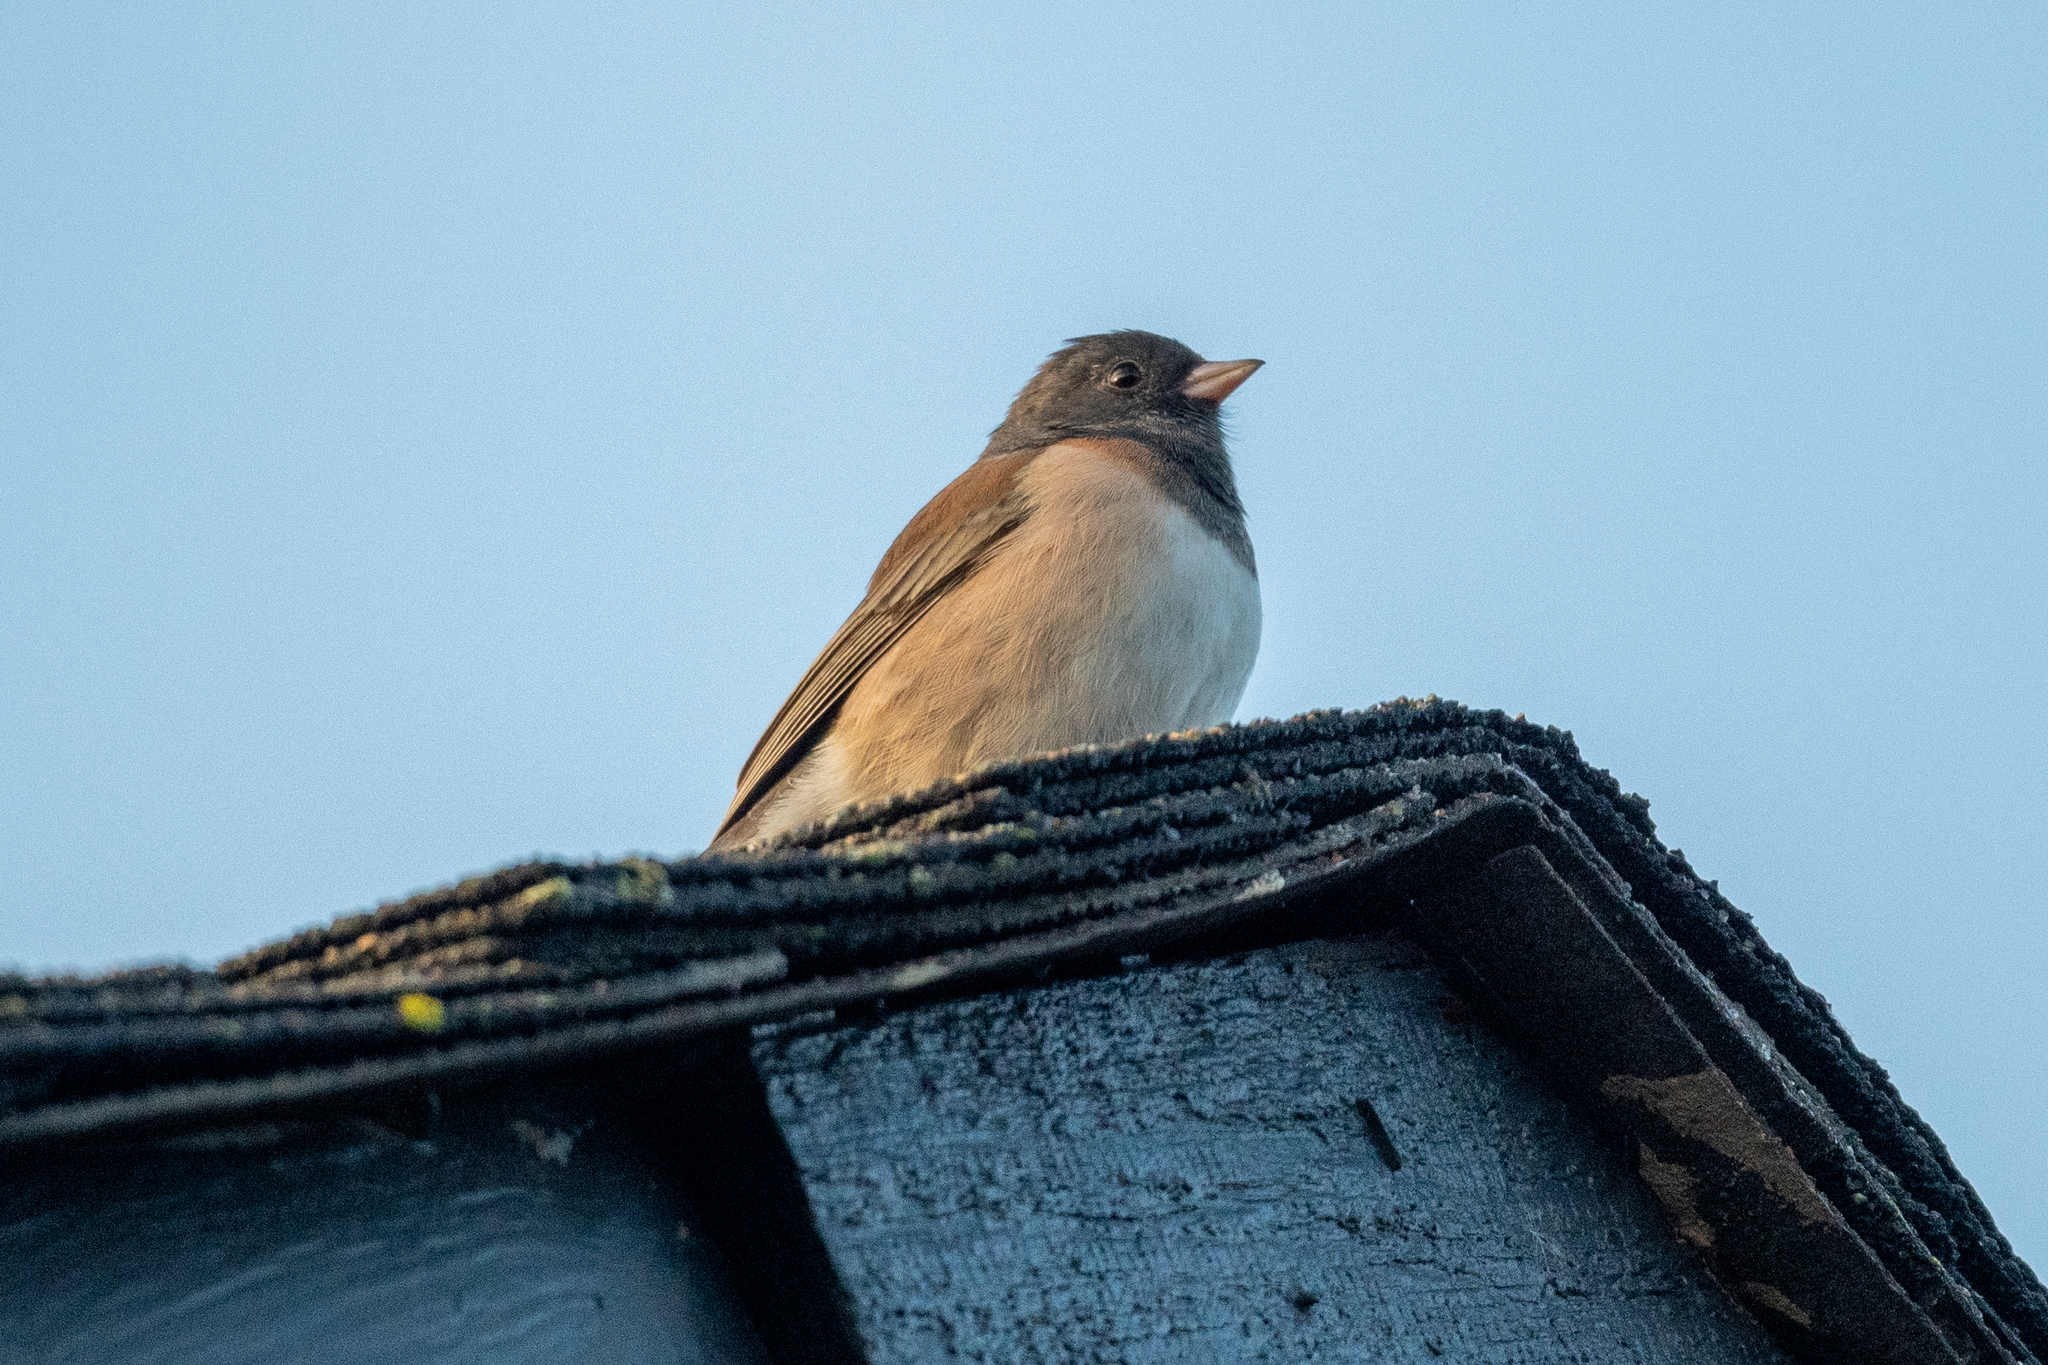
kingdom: Animalia
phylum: Chordata
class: Aves
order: Passeriformes
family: Passerellidae
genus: Junco
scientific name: Junco hyemalis
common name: Dark-eyed junco
